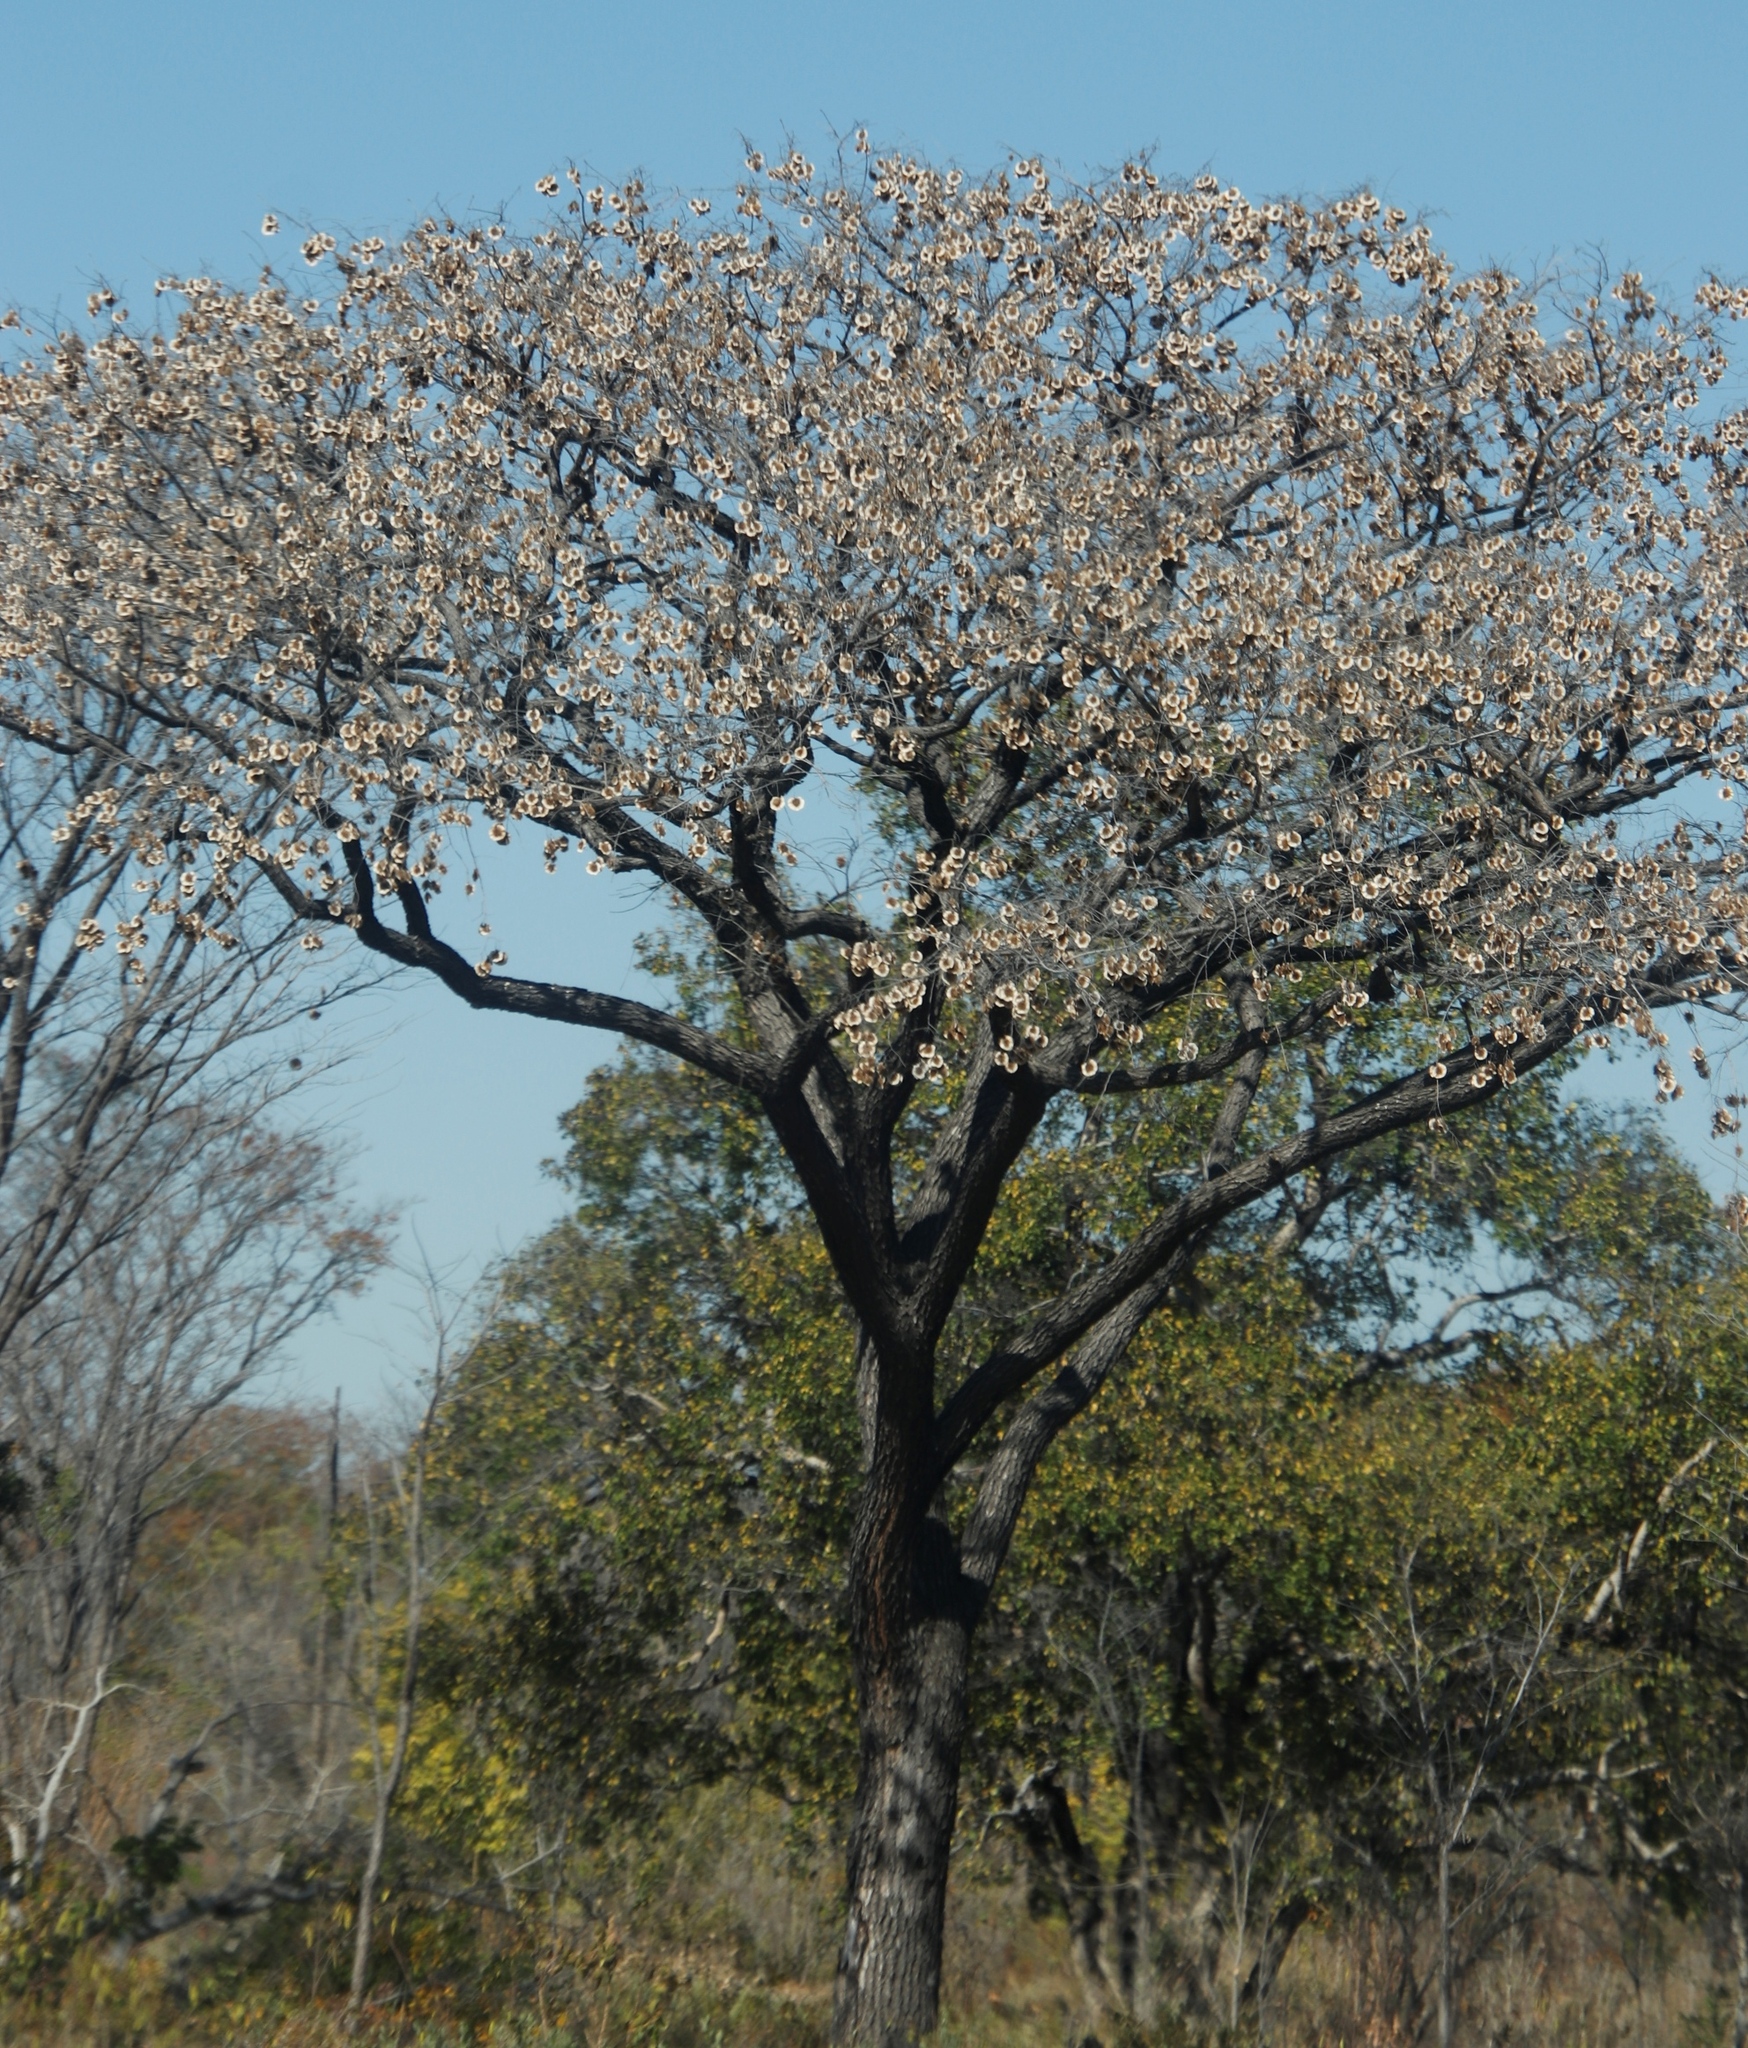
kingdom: Plantae
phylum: Tracheophyta
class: Magnoliopsida
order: Fabales
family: Fabaceae
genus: Pterocarpus
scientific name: Pterocarpus angolensis
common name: Bloodwood tree
